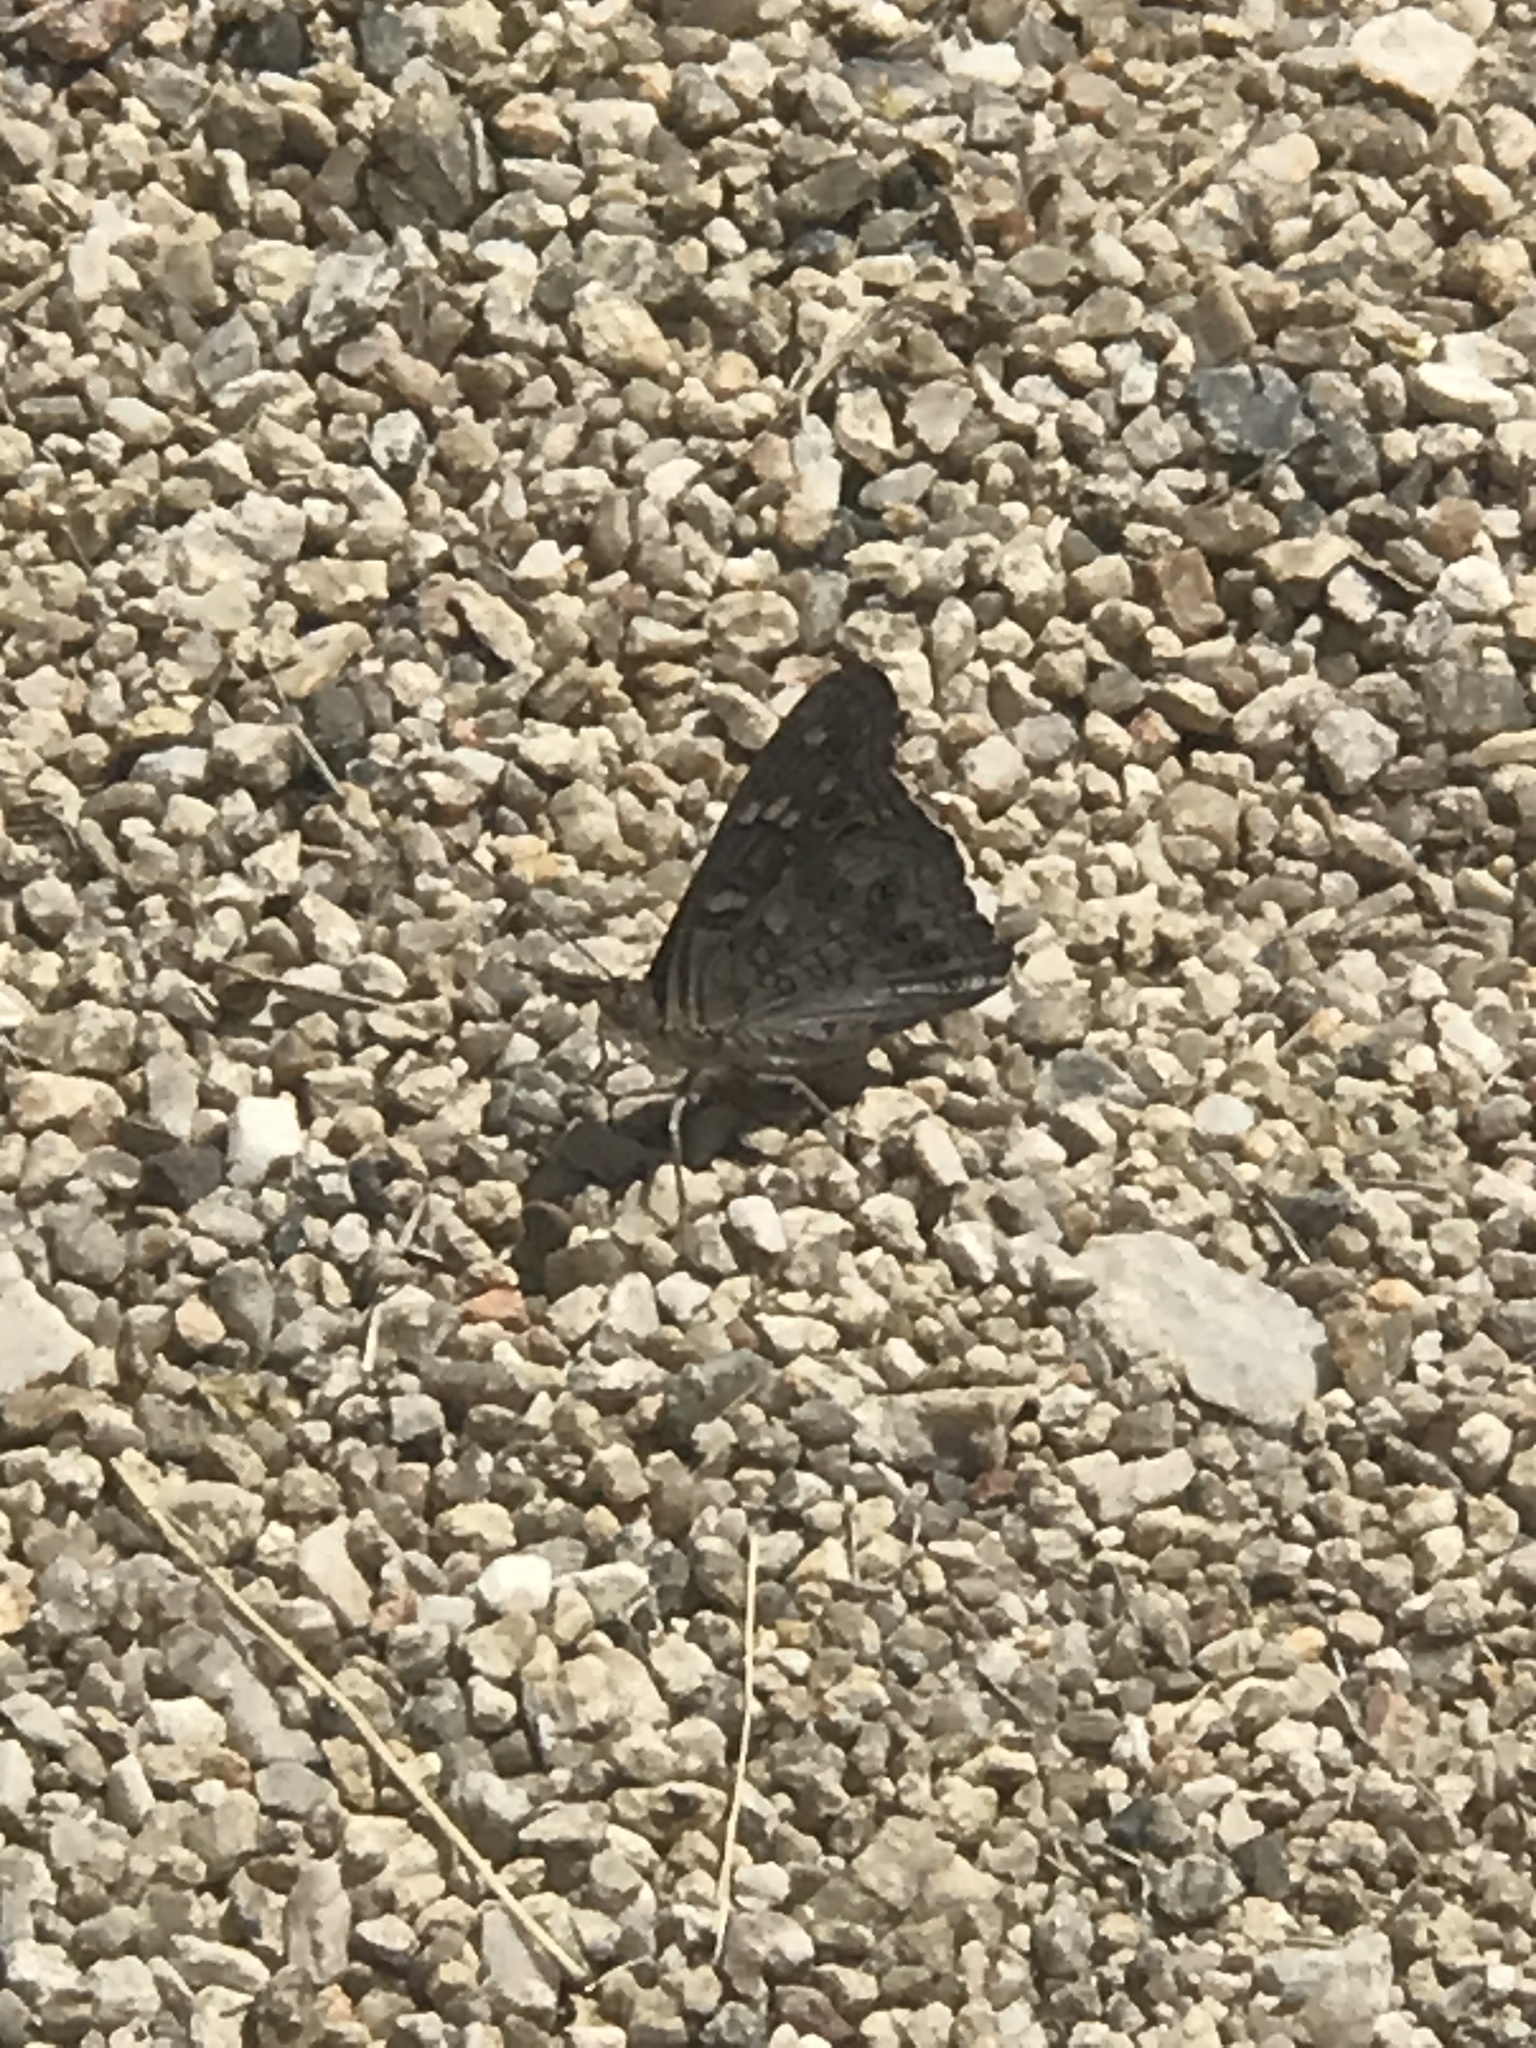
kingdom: Animalia
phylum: Arthropoda
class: Insecta
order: Lepidoptera
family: Nymphalidae
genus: Asterocampa
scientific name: Asterocampa leilia
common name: Empress leilia
